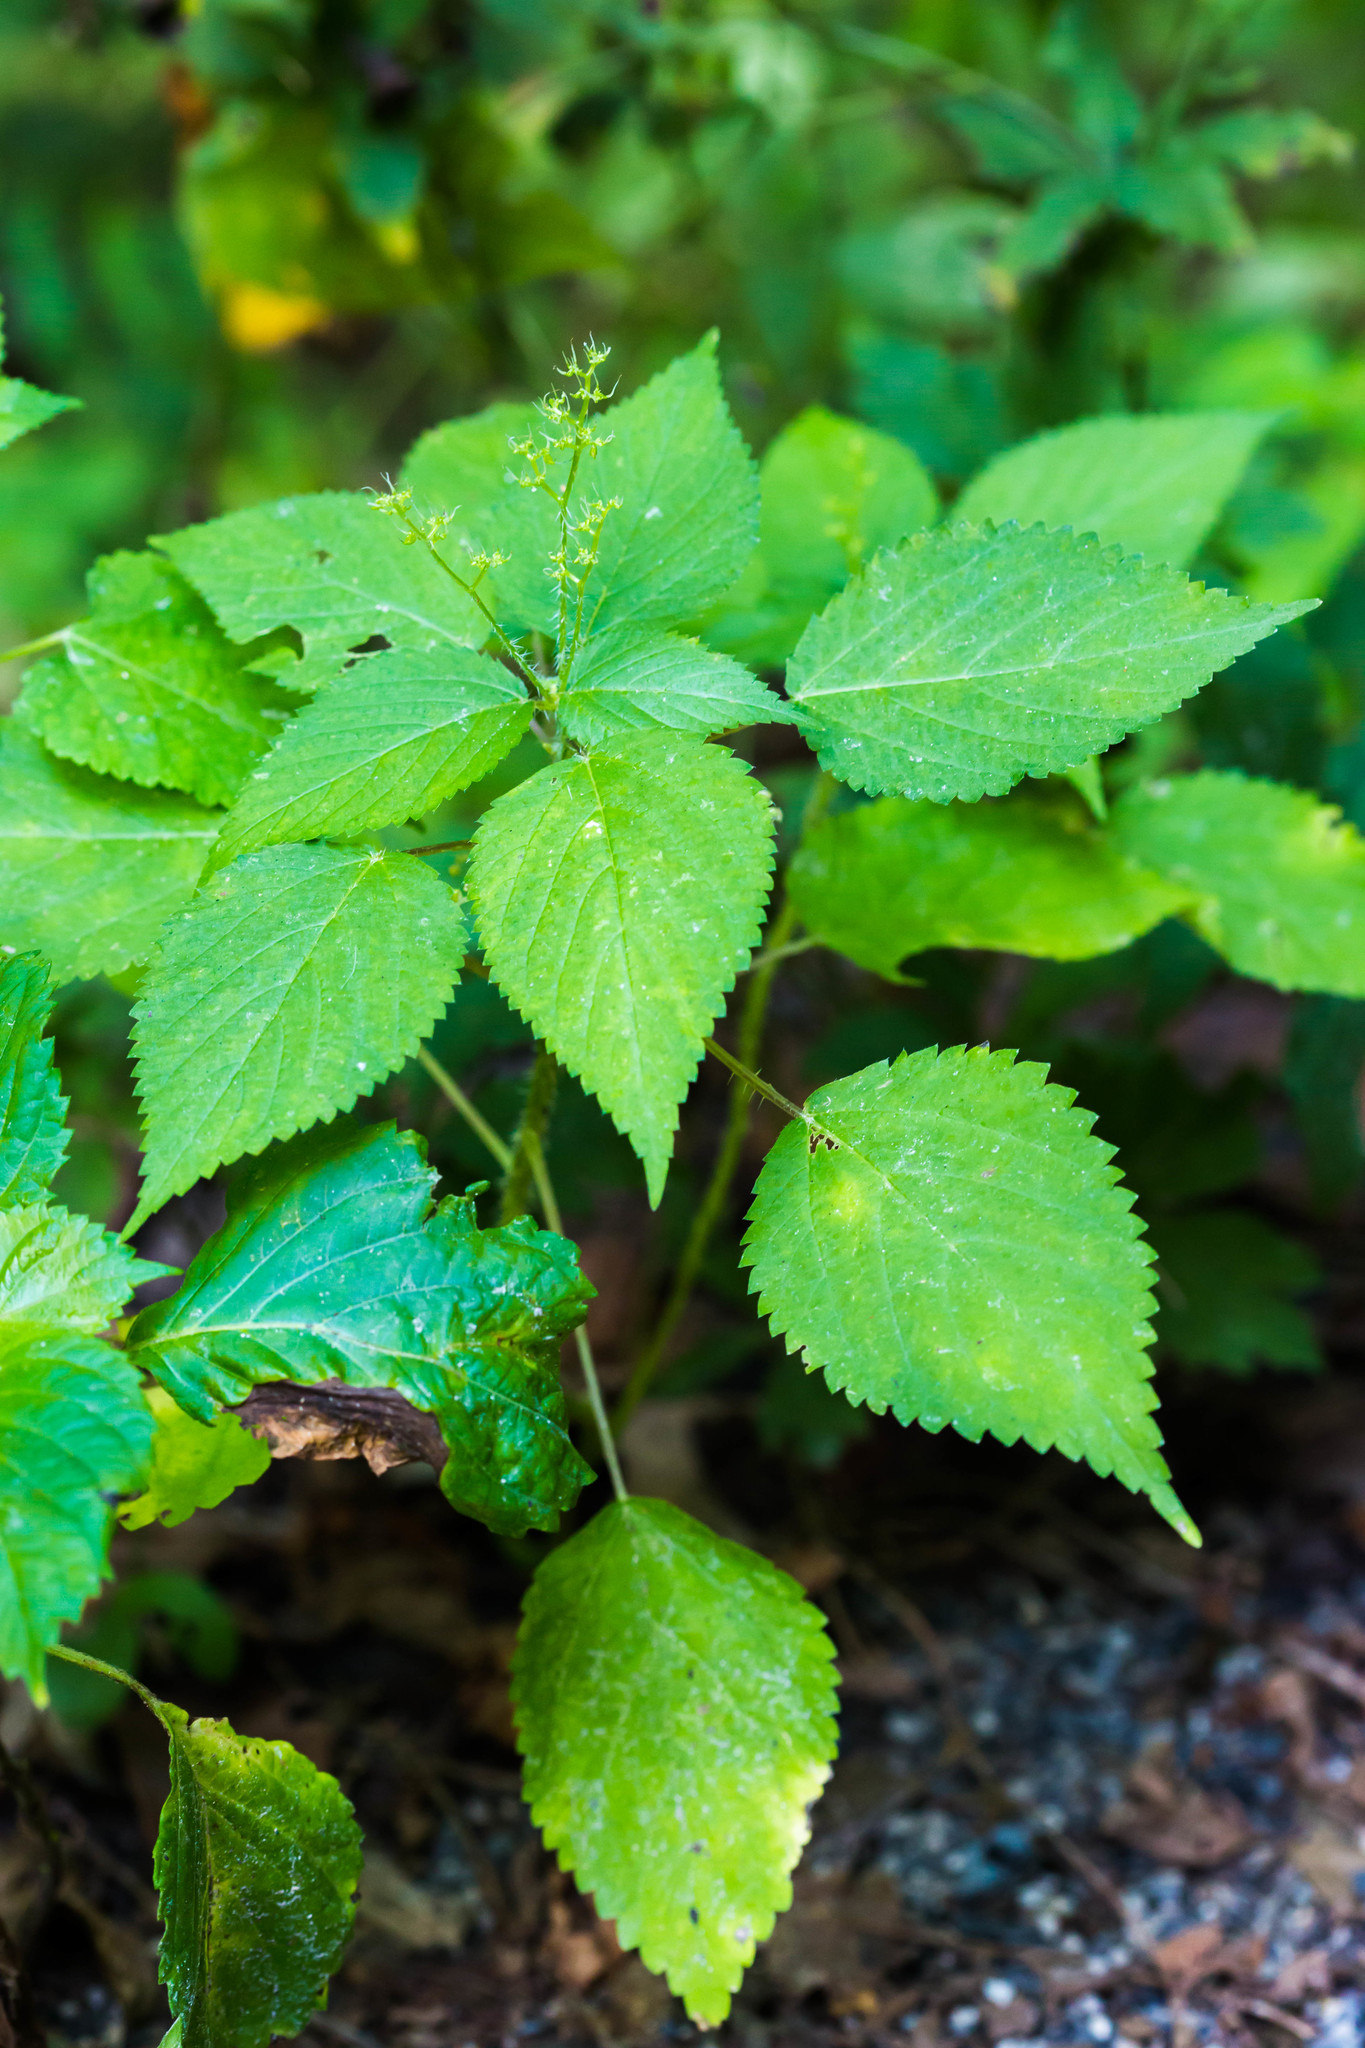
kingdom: Plantae
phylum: Tracheophyta
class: Magnoliopsida
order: Rosales
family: Urticaceae
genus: Laportea
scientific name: Laportea canadensis
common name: Canada nettle
